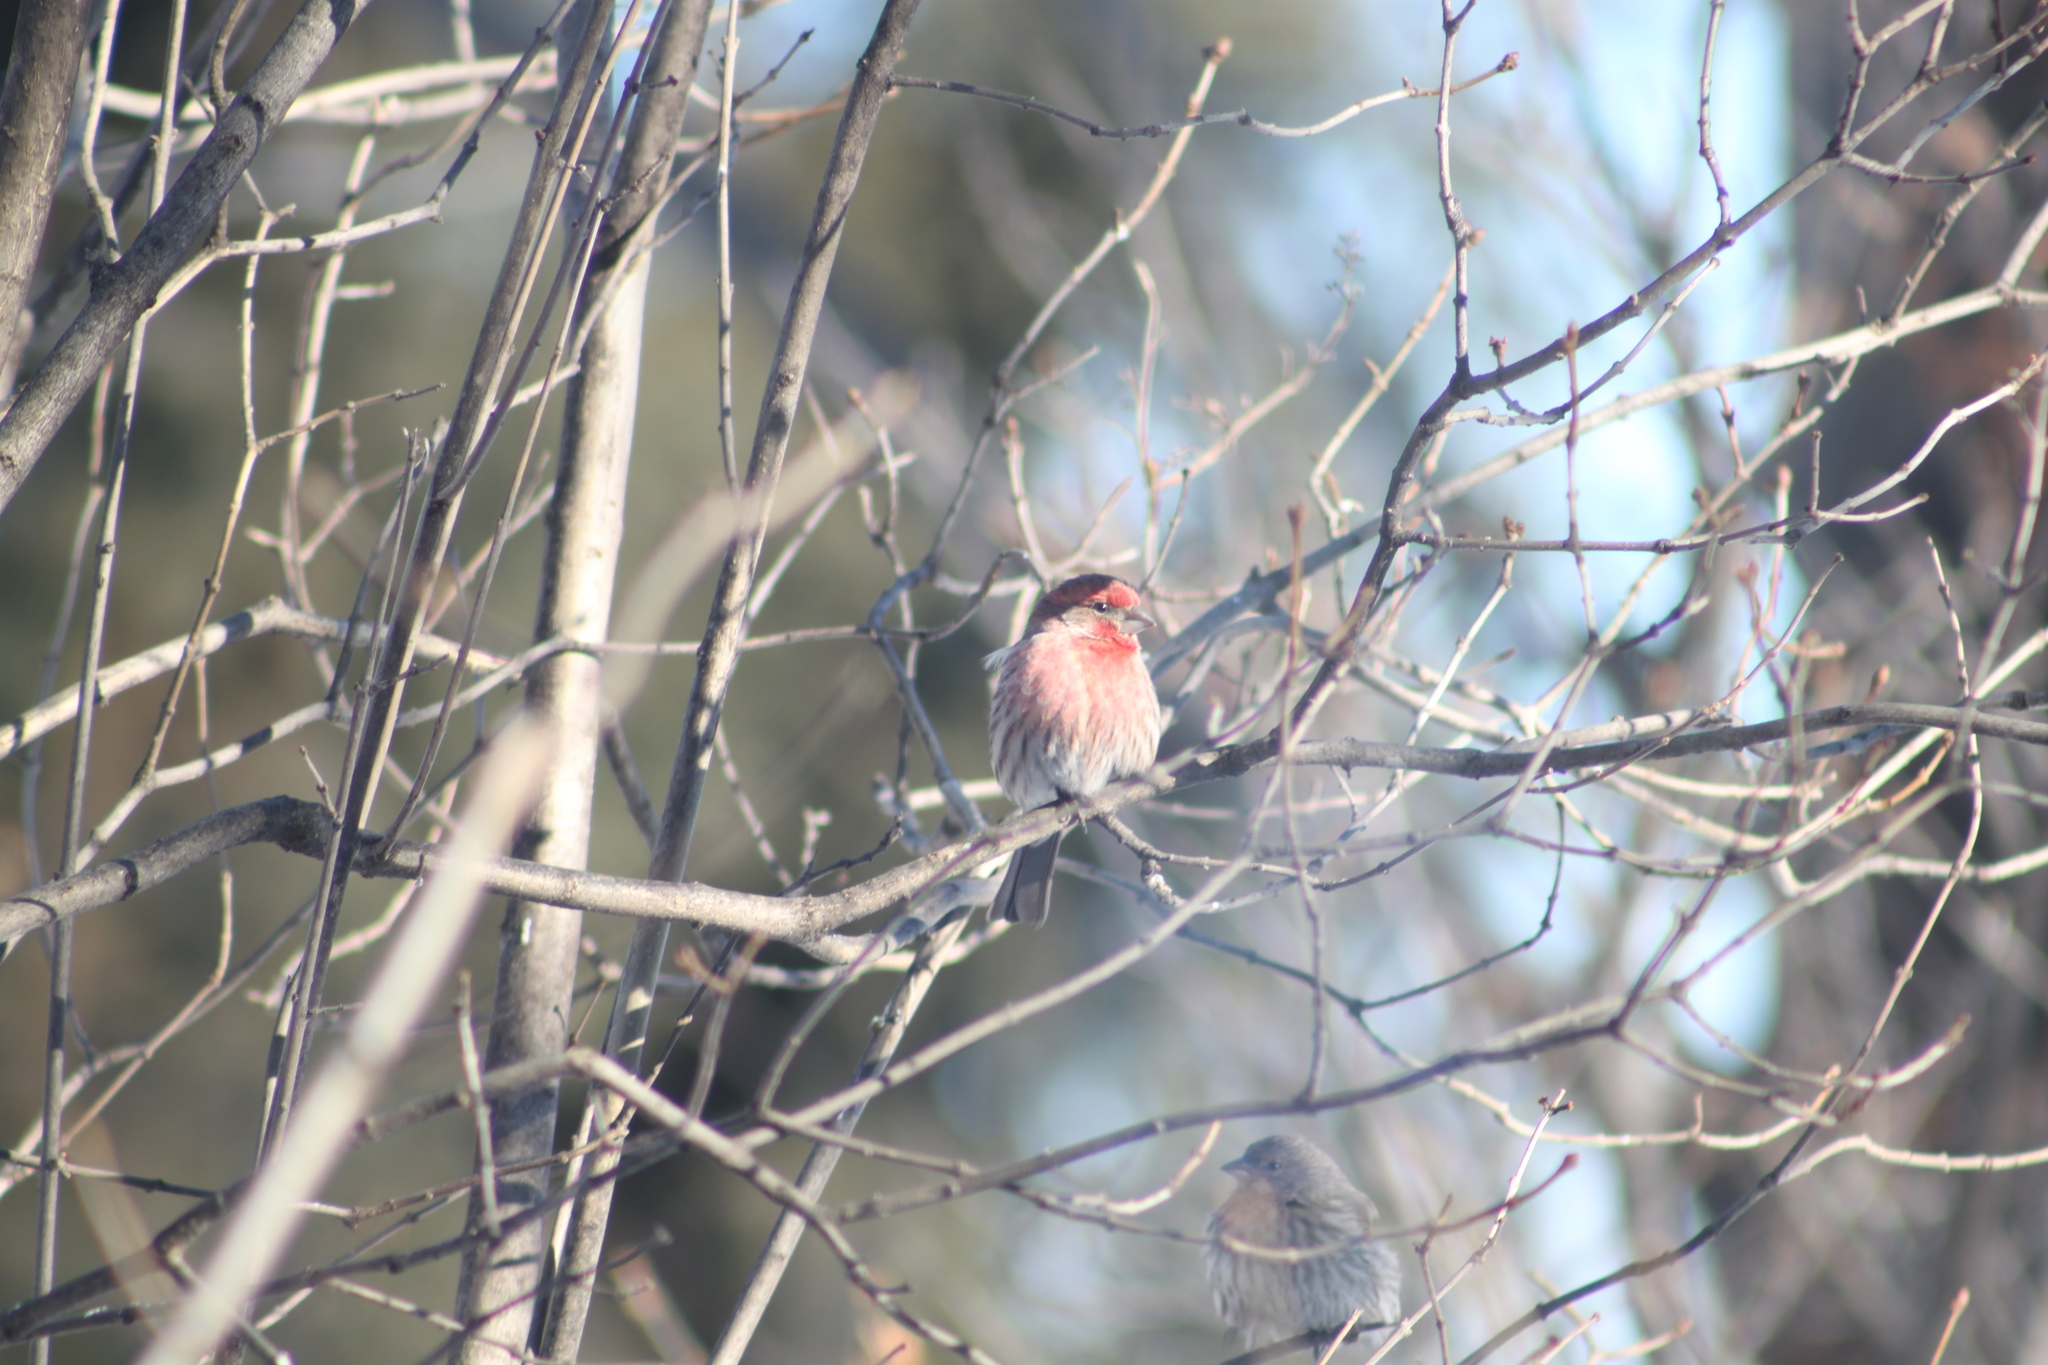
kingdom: Animalia
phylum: Chordata
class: Aves
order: Passeriformes
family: Fringillidae
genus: Haemorhous
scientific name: Haemorhous mexicanus
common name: House finch
